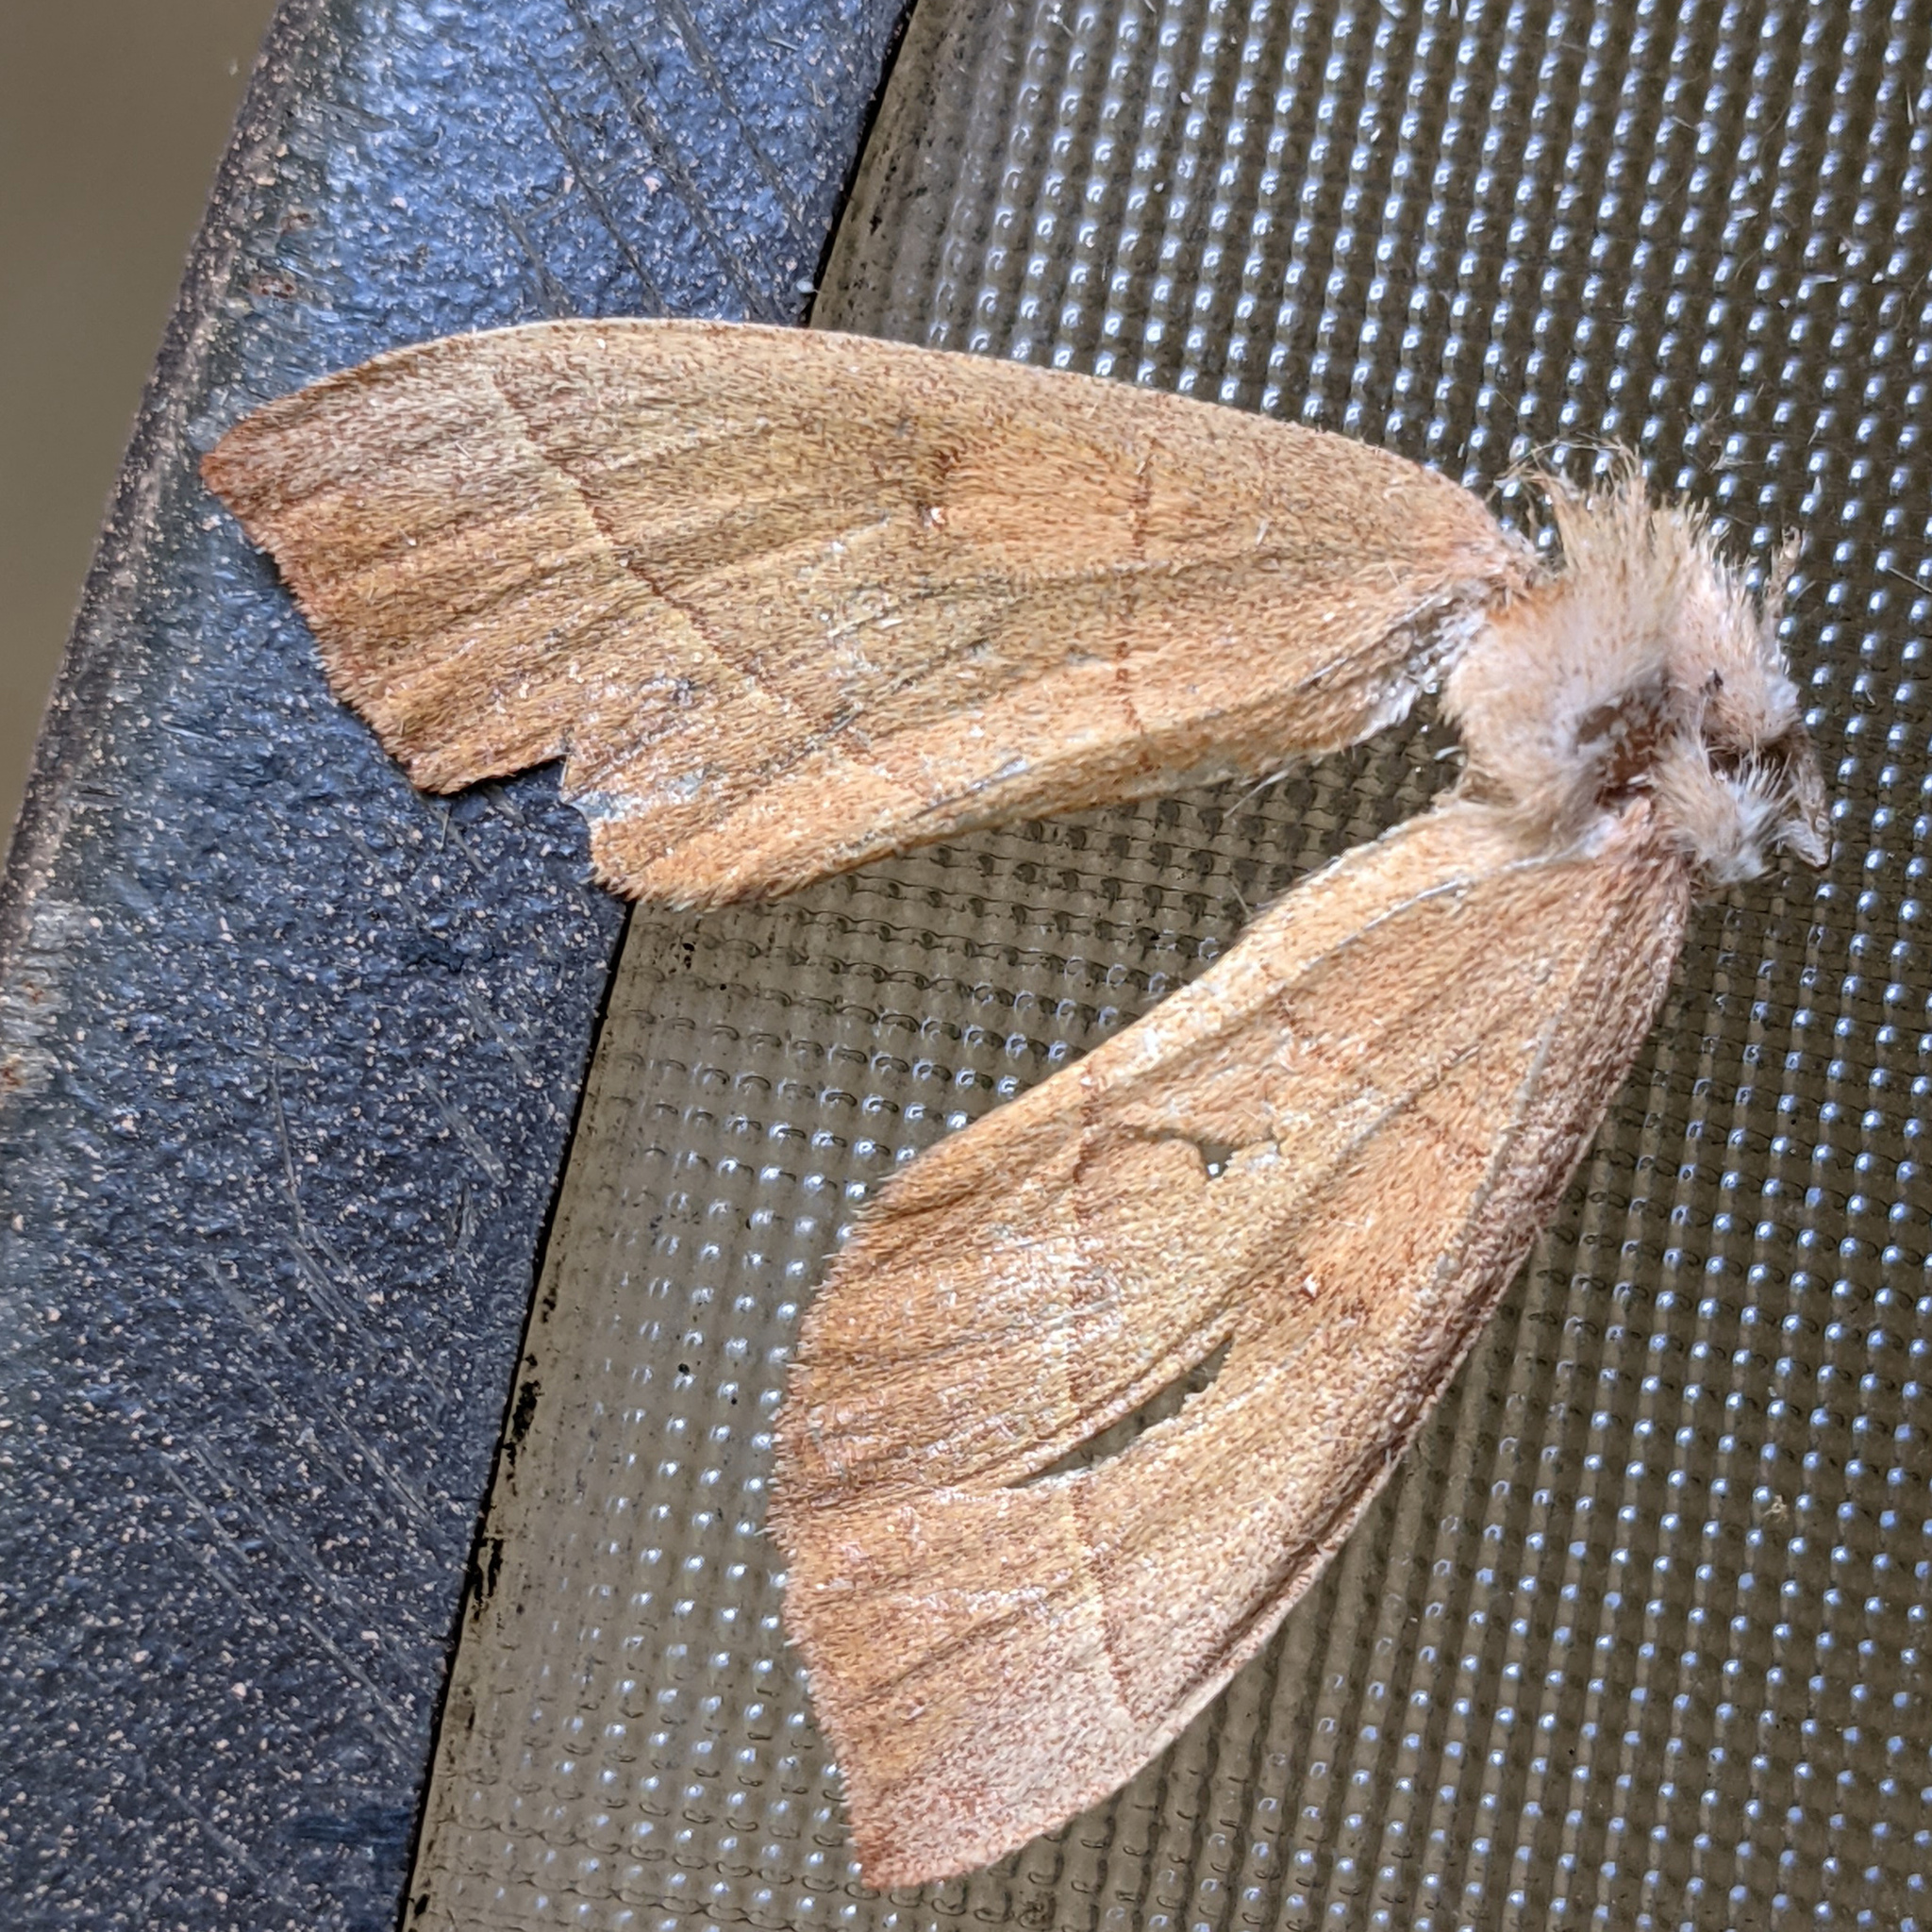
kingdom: Animalia
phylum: Arthropoda
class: Insecta
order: Lepidoptera
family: Notodontidae
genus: Nadata
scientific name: Nadata gibbosa
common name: White-dotted prominent
